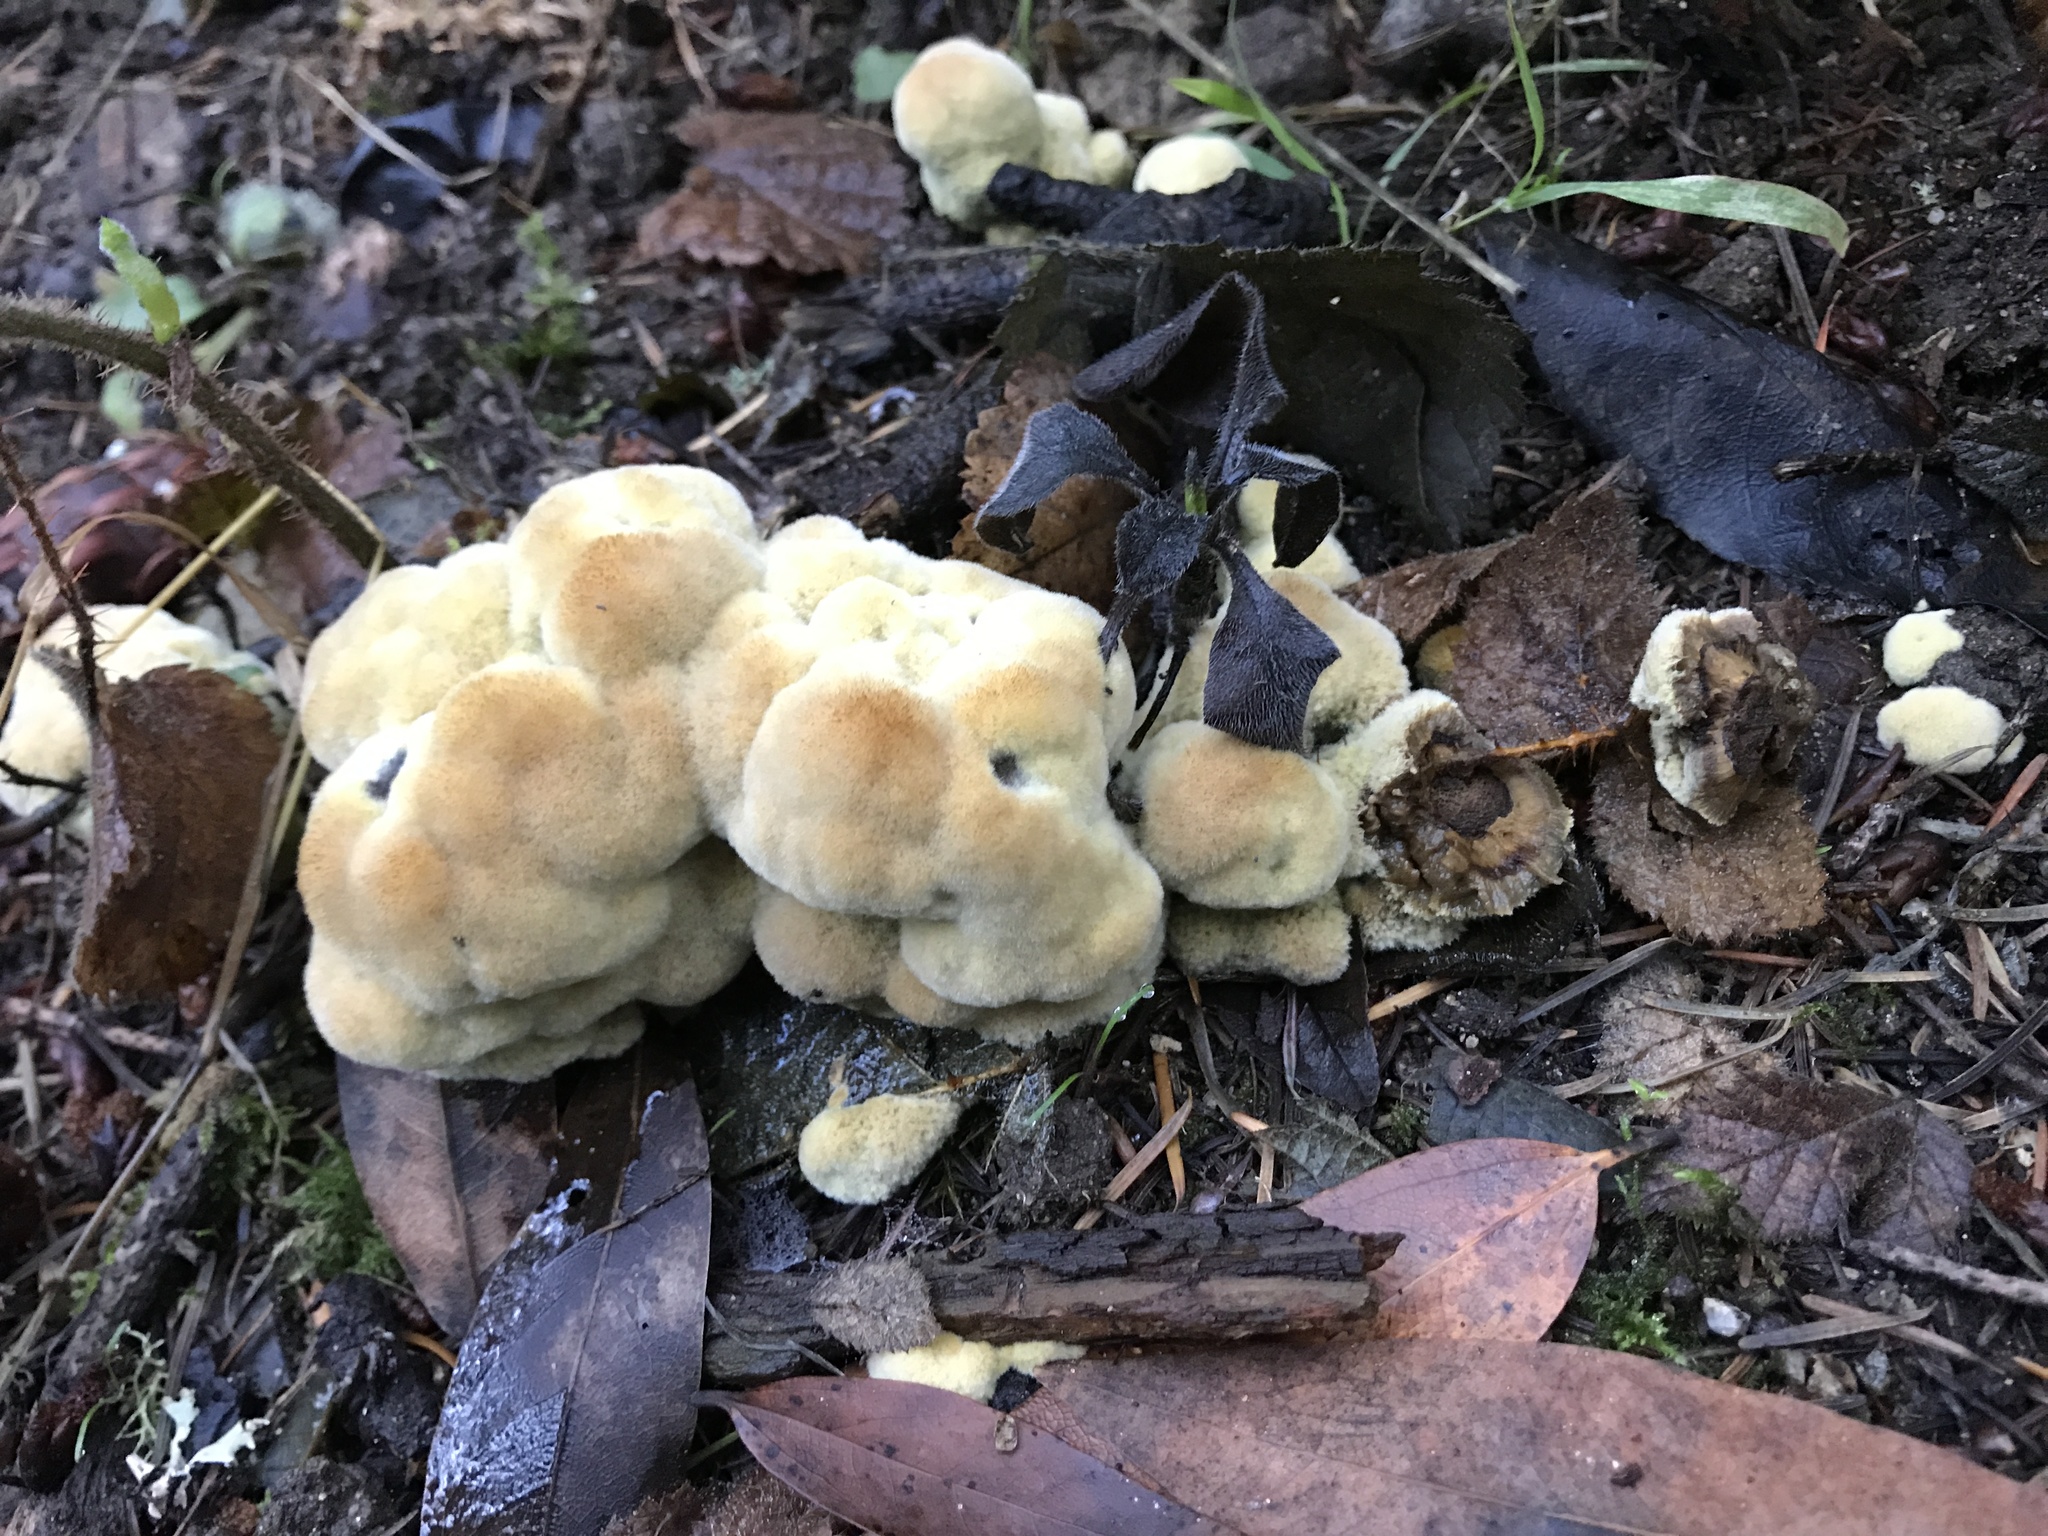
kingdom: Fungi
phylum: Basidiomycota
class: Agaricomycetes
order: Polyporales
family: Laetiporaceae
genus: Phaeolus
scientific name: Phaeolus schweinitzii
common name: Dyer's mazegill
